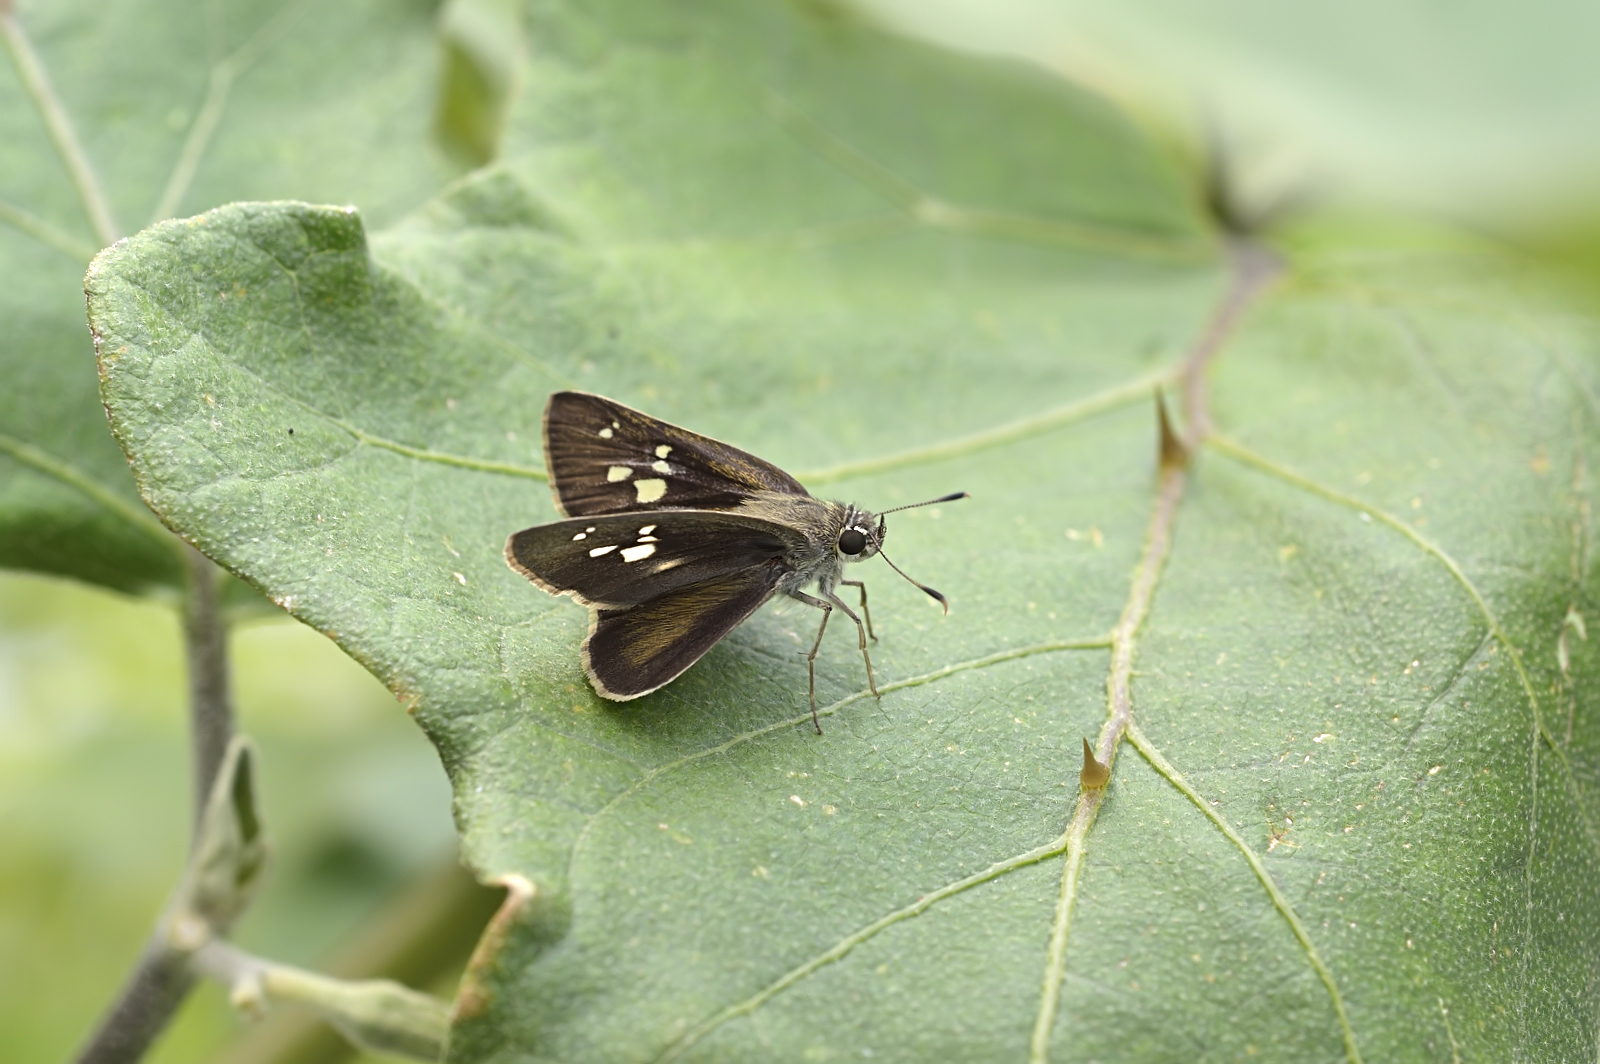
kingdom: Animalia
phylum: Arthropoda
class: Insecta
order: Lepidoptera
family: Hesperiidae
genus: Pelopidas
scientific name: Pelopidas mathias
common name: Black-branded swift
